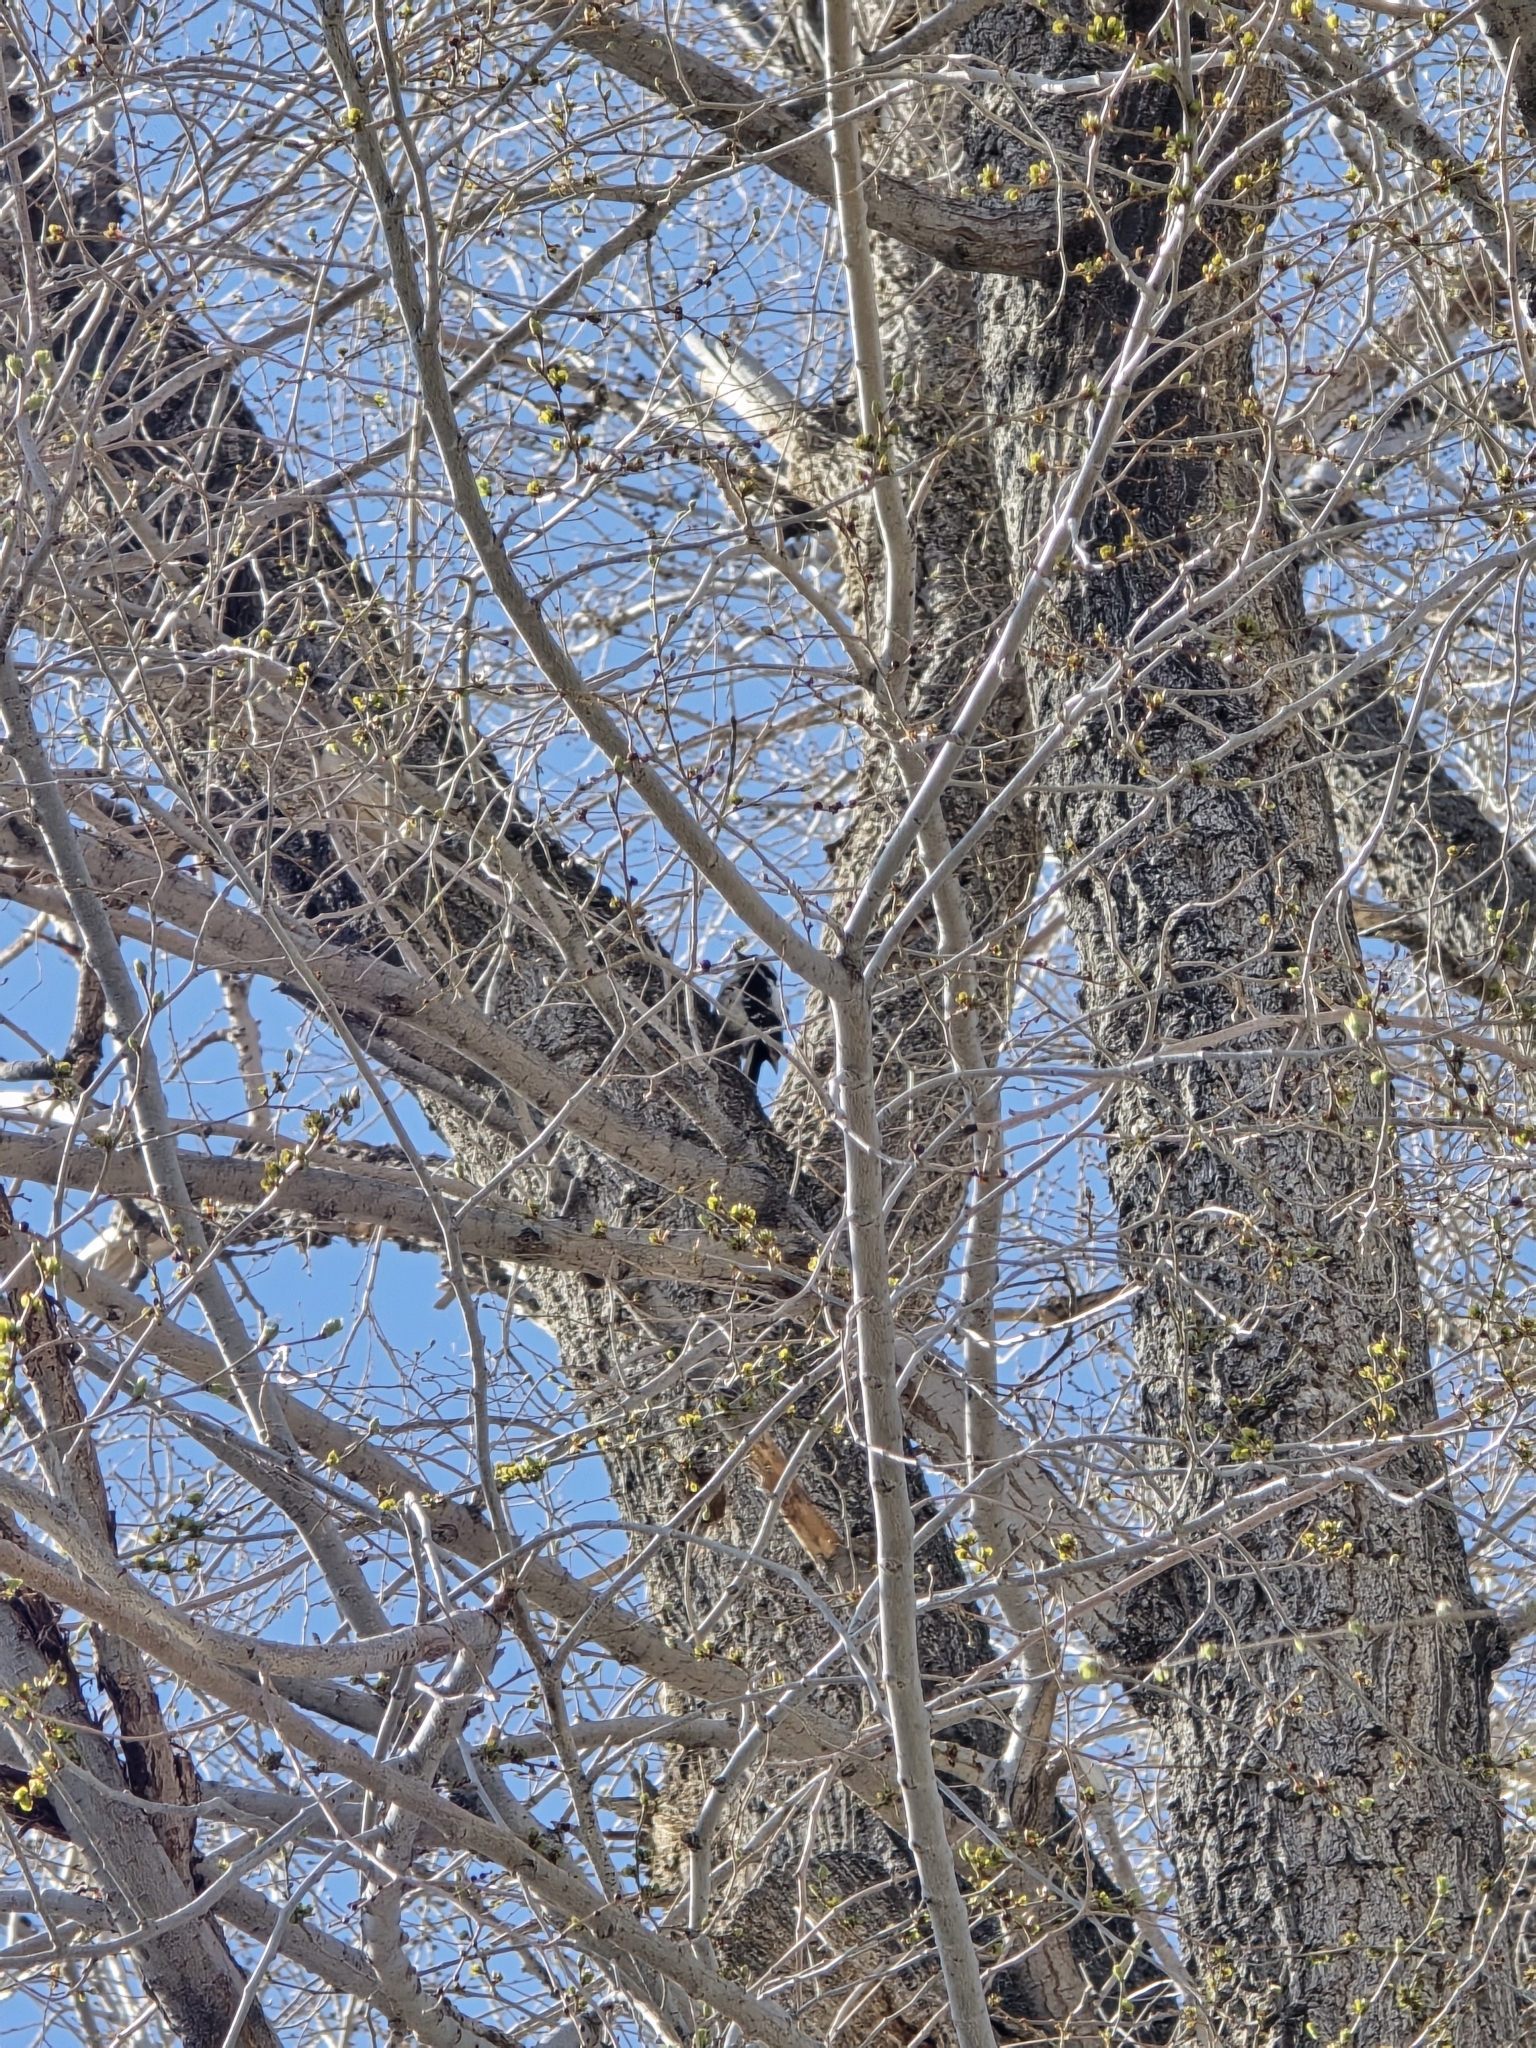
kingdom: Animalia
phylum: Chordata
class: Aves
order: Piciformes
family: Picidae
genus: Dryobates
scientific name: Dryobates pubescens
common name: Downy woodpecker
